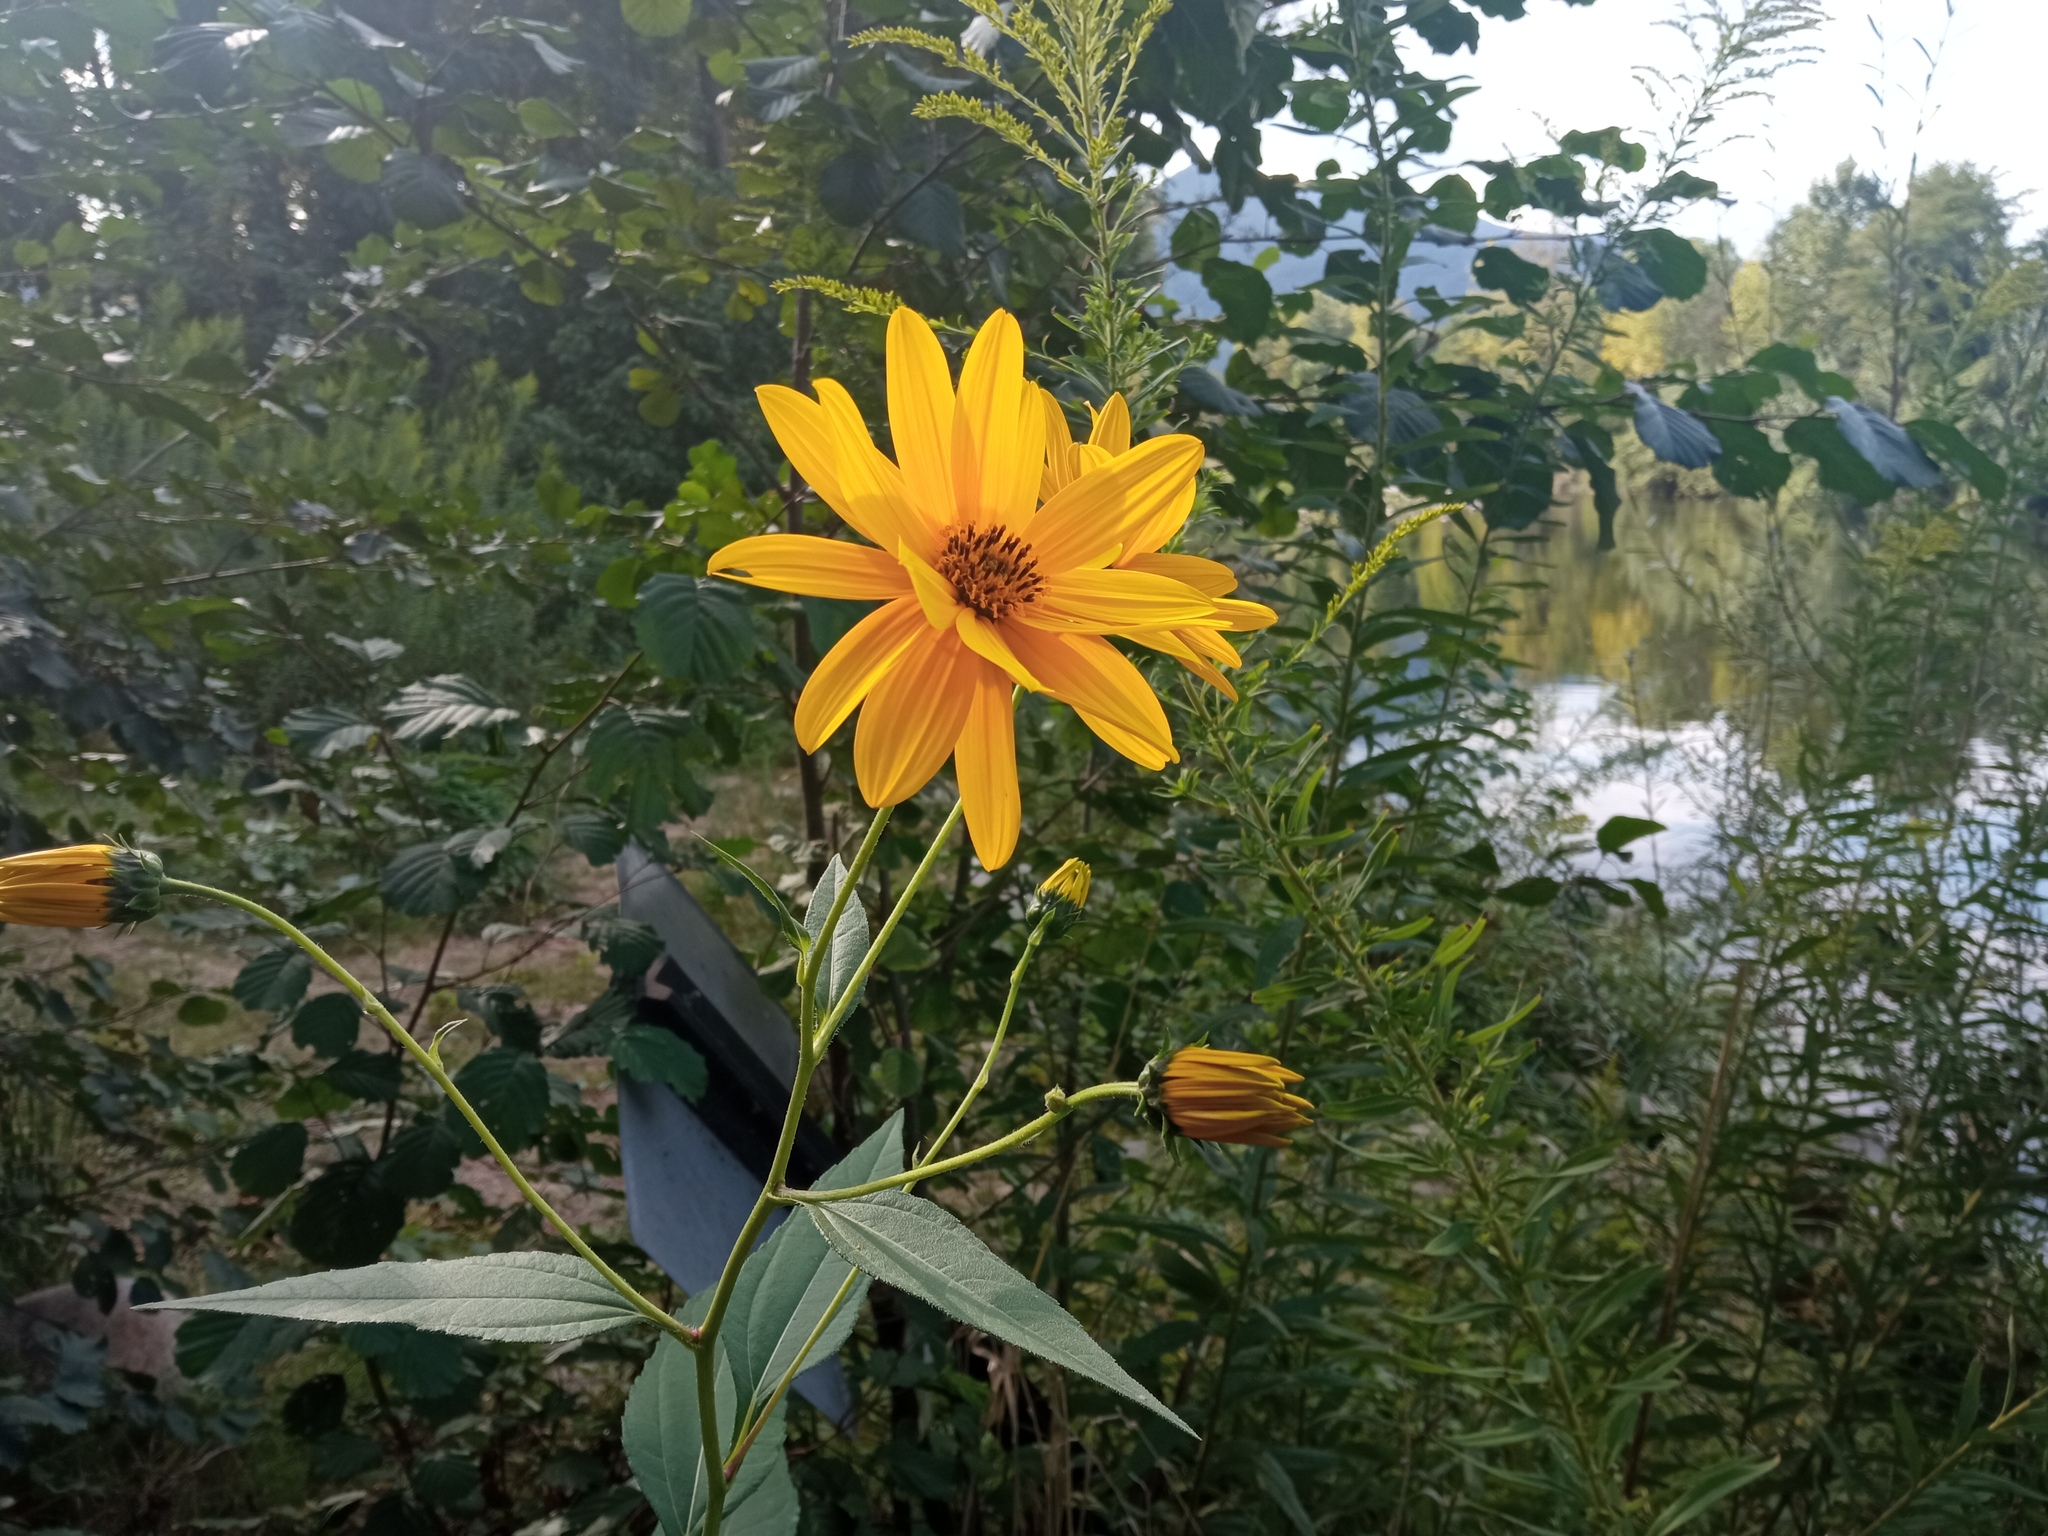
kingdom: Plantae
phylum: Tracheophyta
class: Magnoliopsida
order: Asterales
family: Asteraceae
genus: Helianthus
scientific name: Helianthus tuberosus
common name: Jerusalem artichoke
